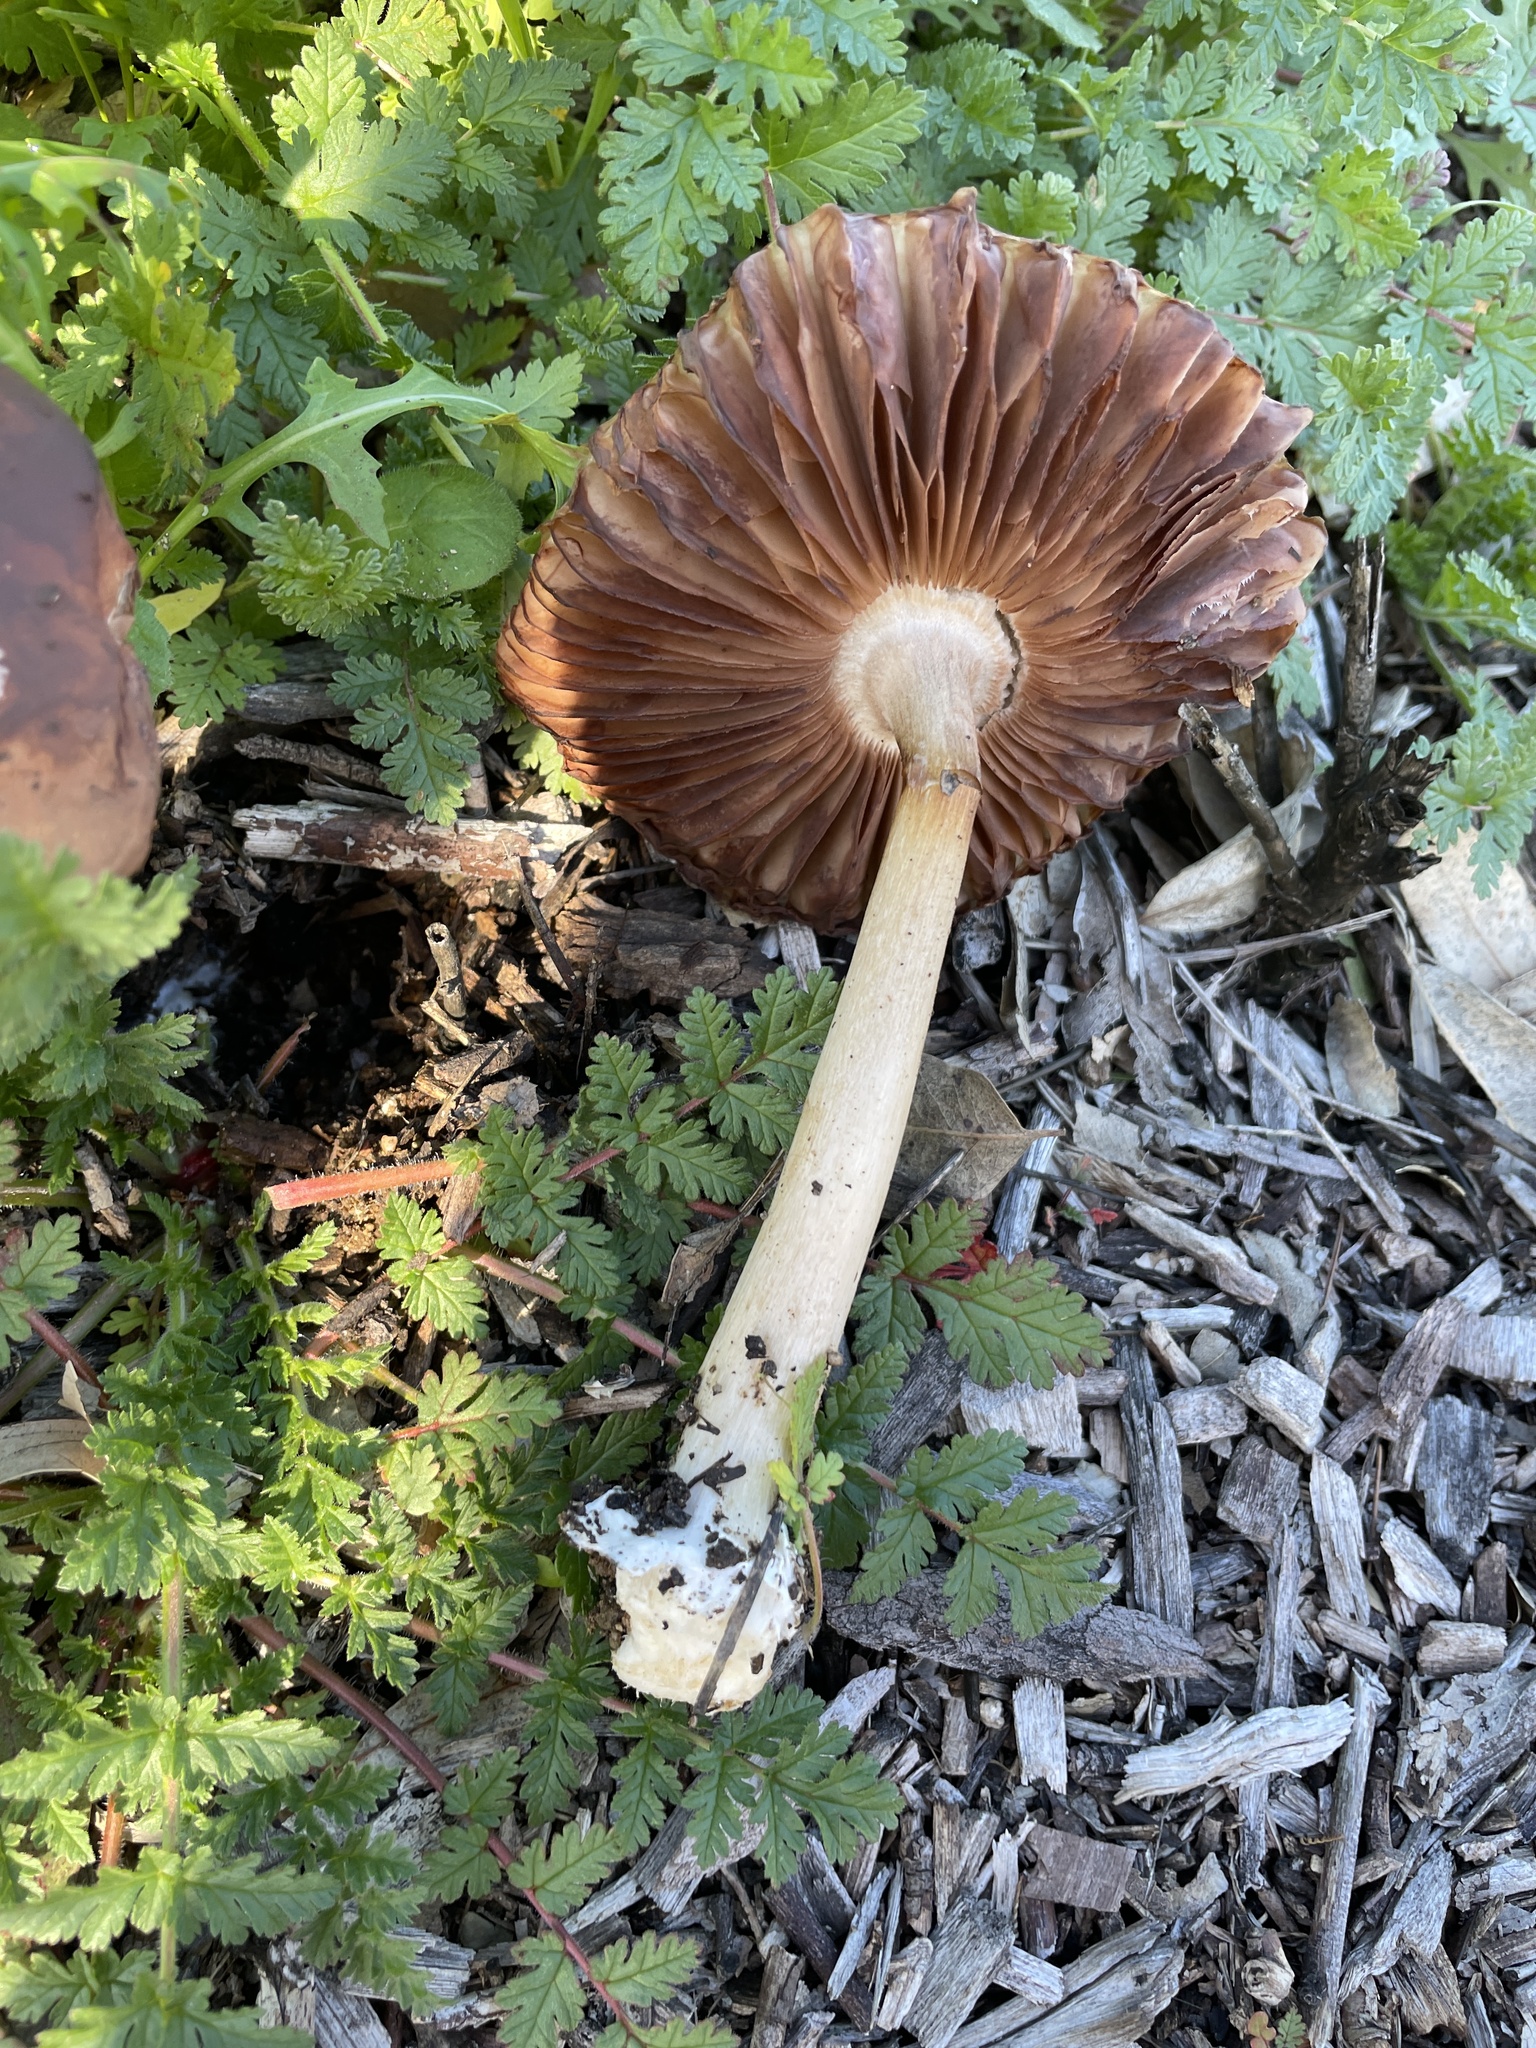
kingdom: Fungi
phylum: Basidiomycota
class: Agaricomycetes
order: Agaricales
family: Pluteaceae
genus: Volvopluteus
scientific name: Volvopluteus gloiocephalus
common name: Stubble rosegill
